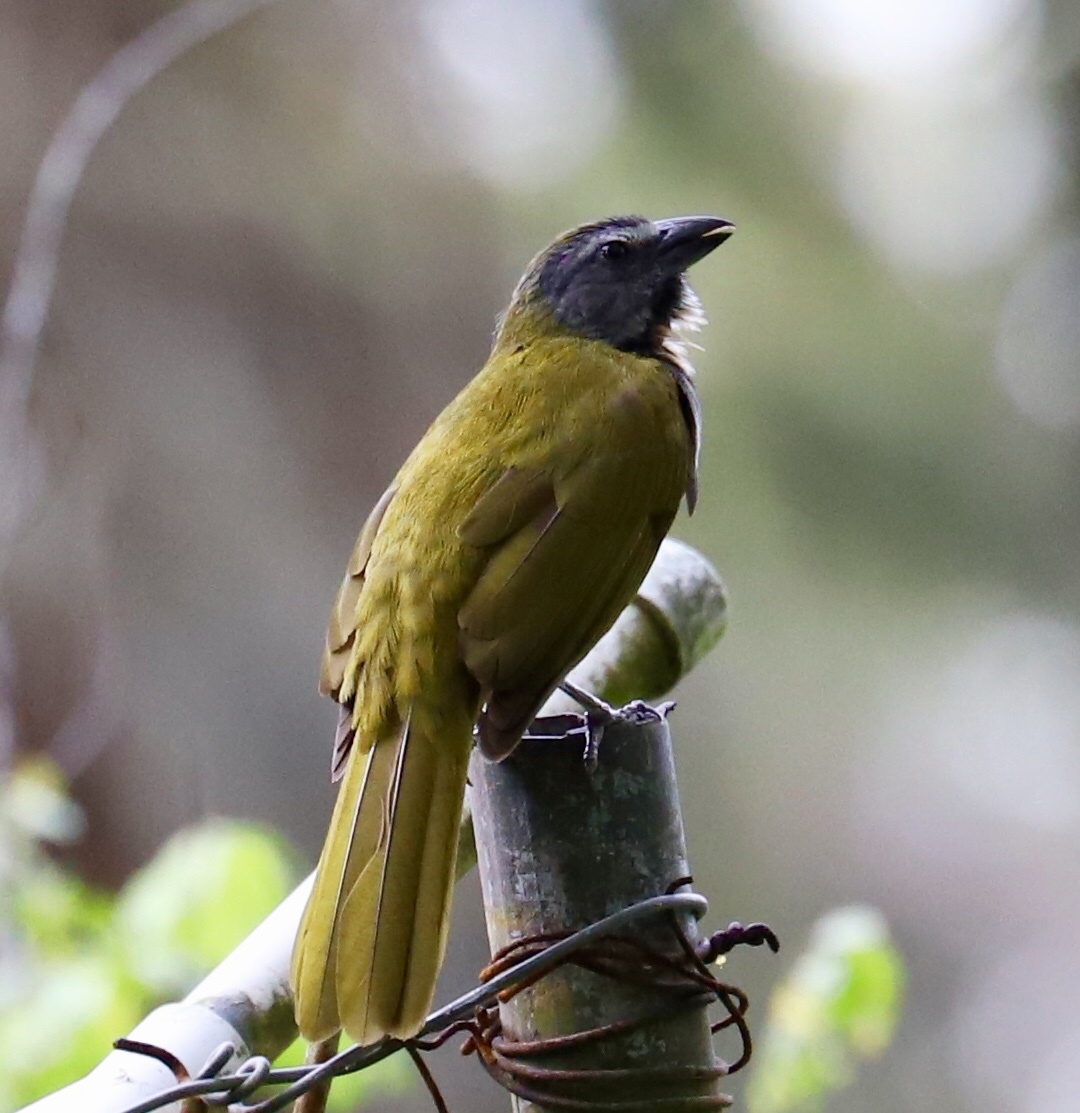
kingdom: Animalia
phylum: Chordata
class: Aves
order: Passeriformes
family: Thraupidae
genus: Saltator
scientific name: Saltator maximus
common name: Buff-throated saltator
